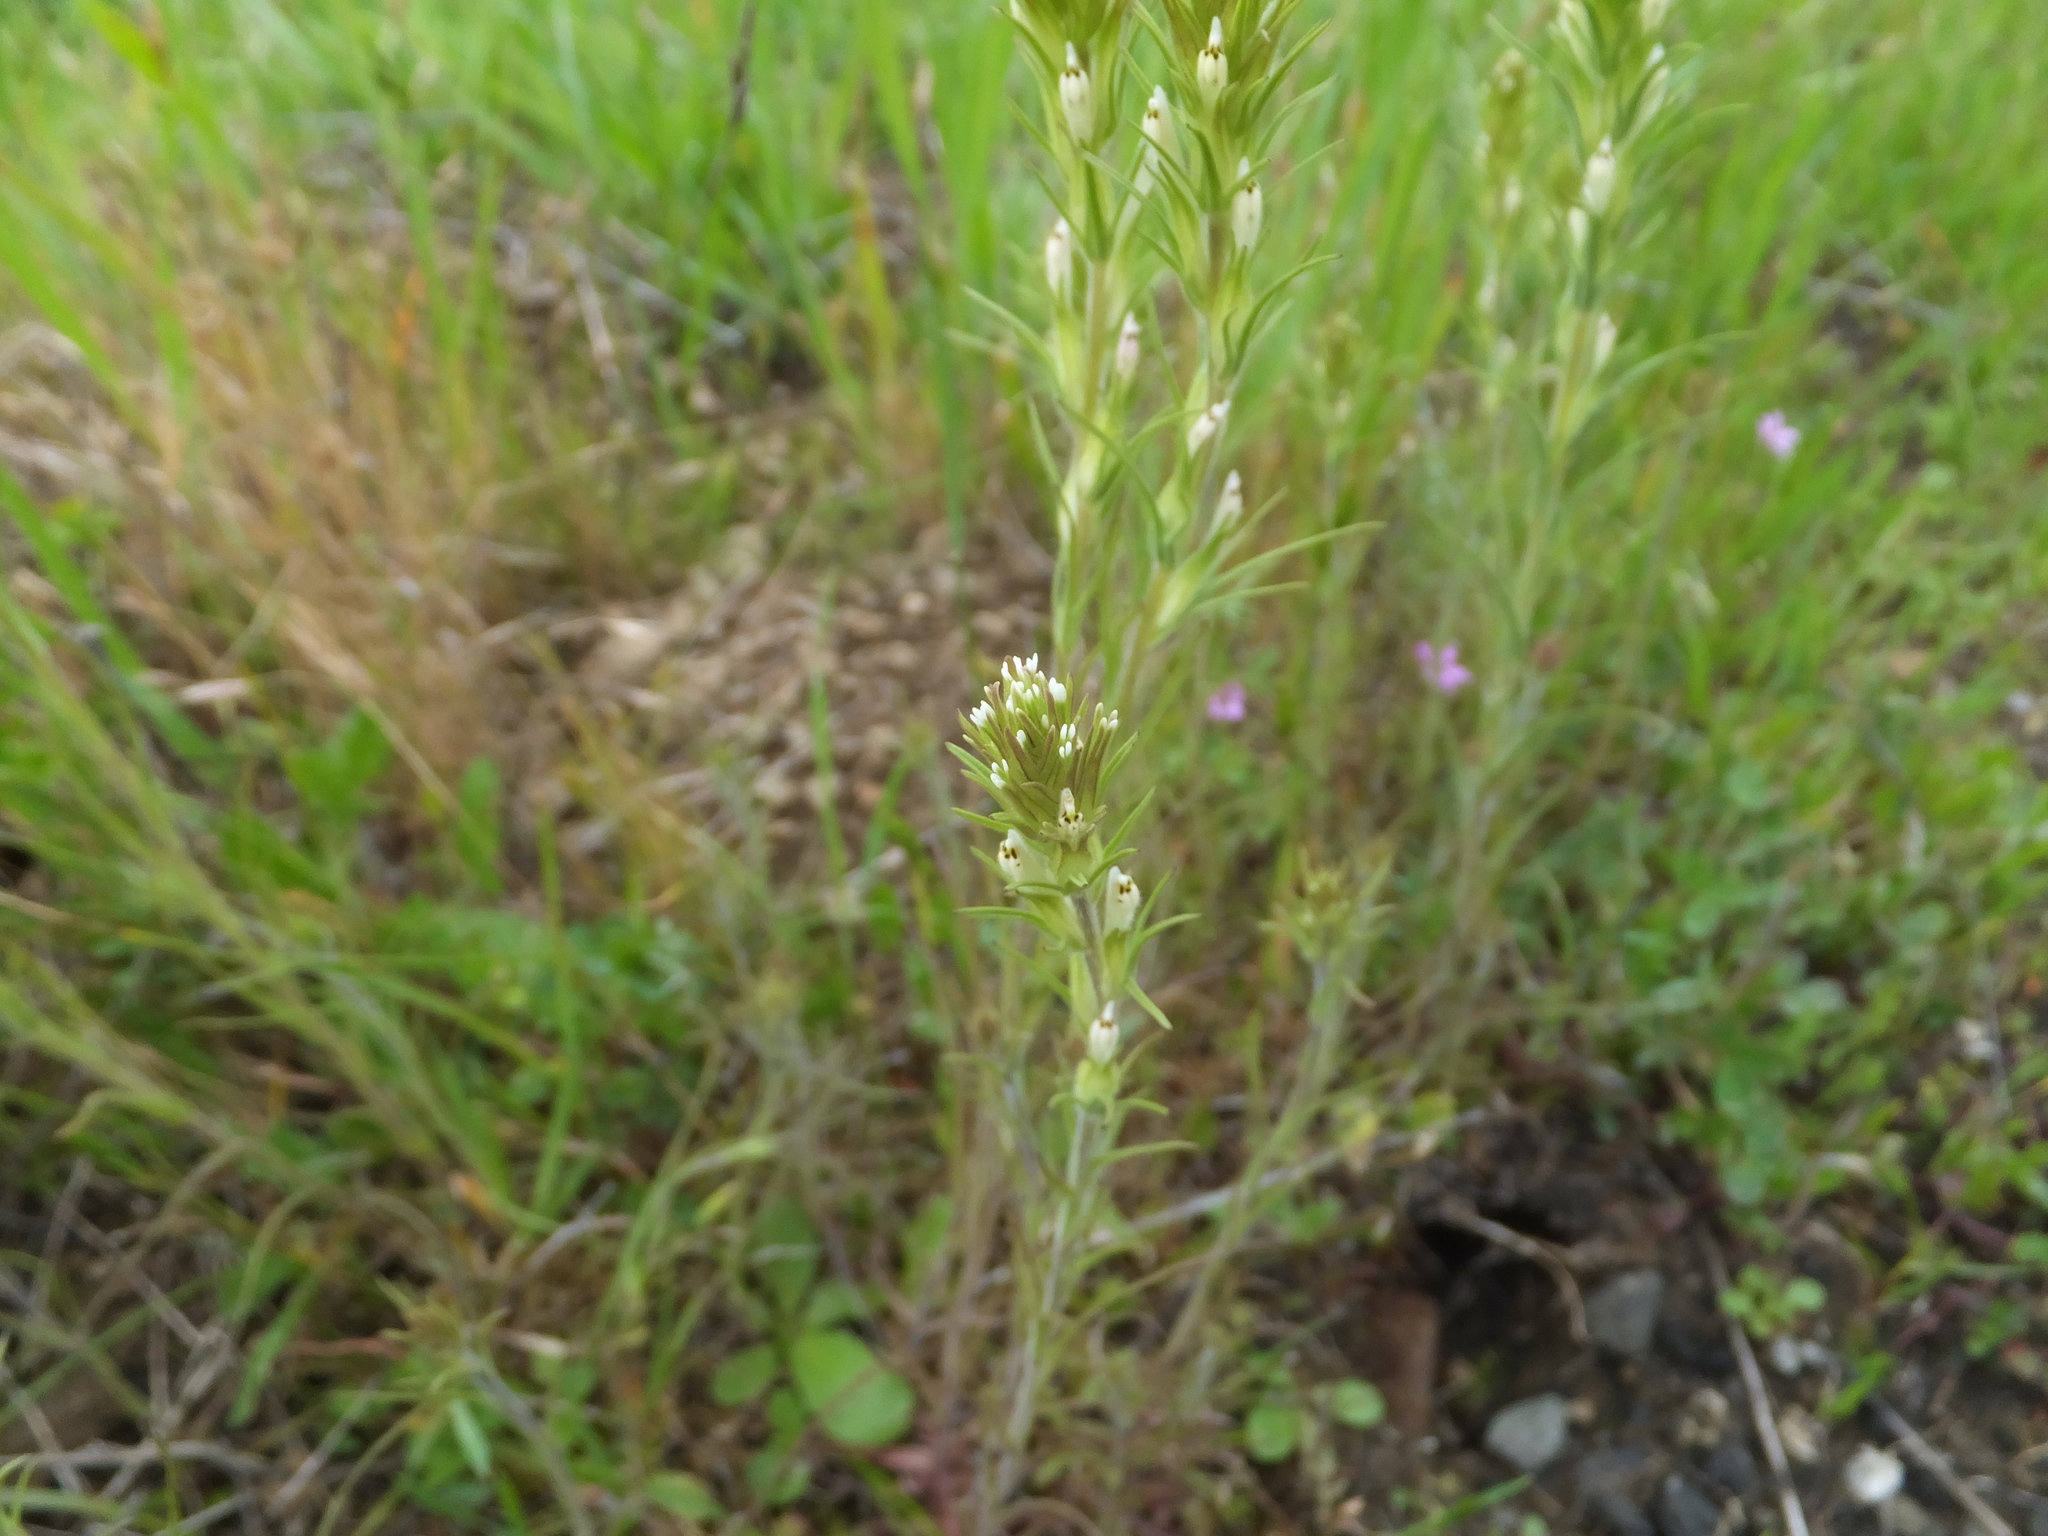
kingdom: Plantae
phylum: Tracheophyta
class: Magnoliopsida
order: Lamiales
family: Orobanchaceae
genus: Castilleja
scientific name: Castilleja attenuata
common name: Valley tassels
